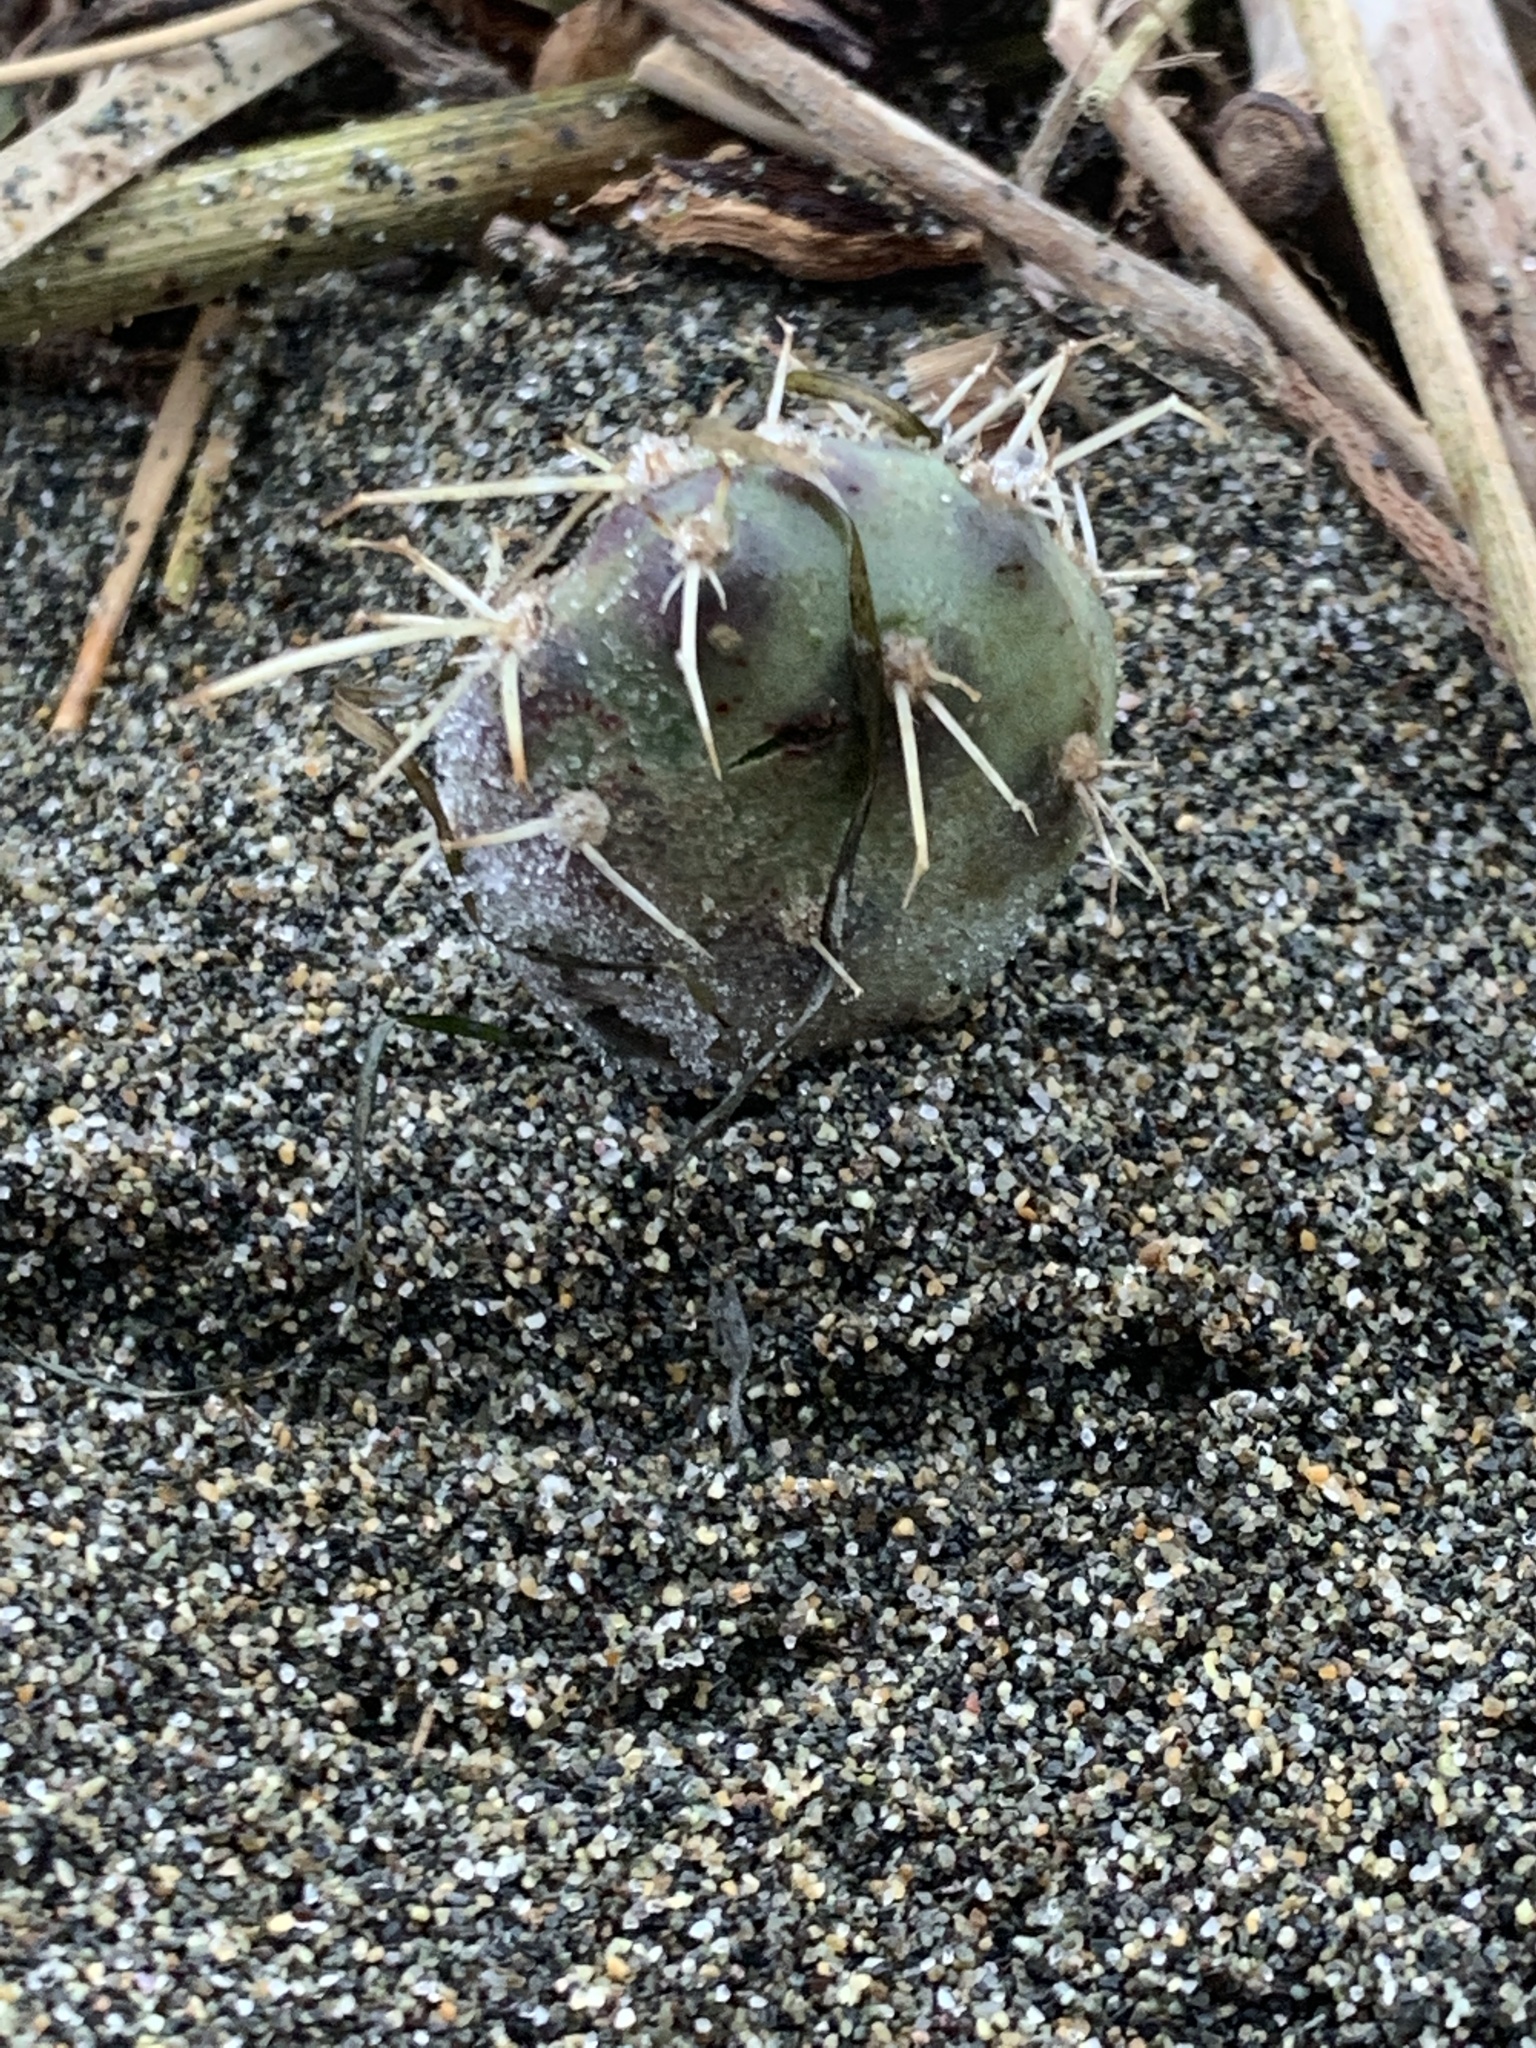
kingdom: Plantae
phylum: Tracheophyta
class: Magnoliopsida
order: Caryophyllales
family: Cactaceae
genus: Opuntia
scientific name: Opuntia fragilis
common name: Brittle cactus
